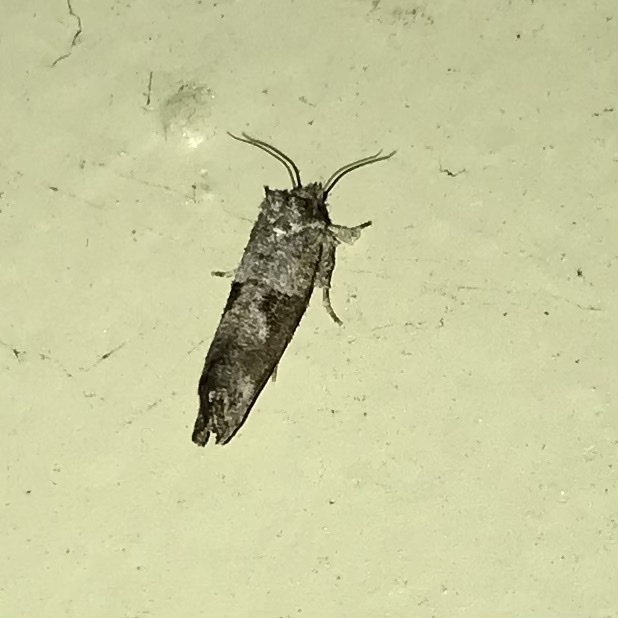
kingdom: Animalia
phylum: Arthropoda
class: Insecta
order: Lepidoptera
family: Tineidae
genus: Acrolophus
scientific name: Acrolophus piger
